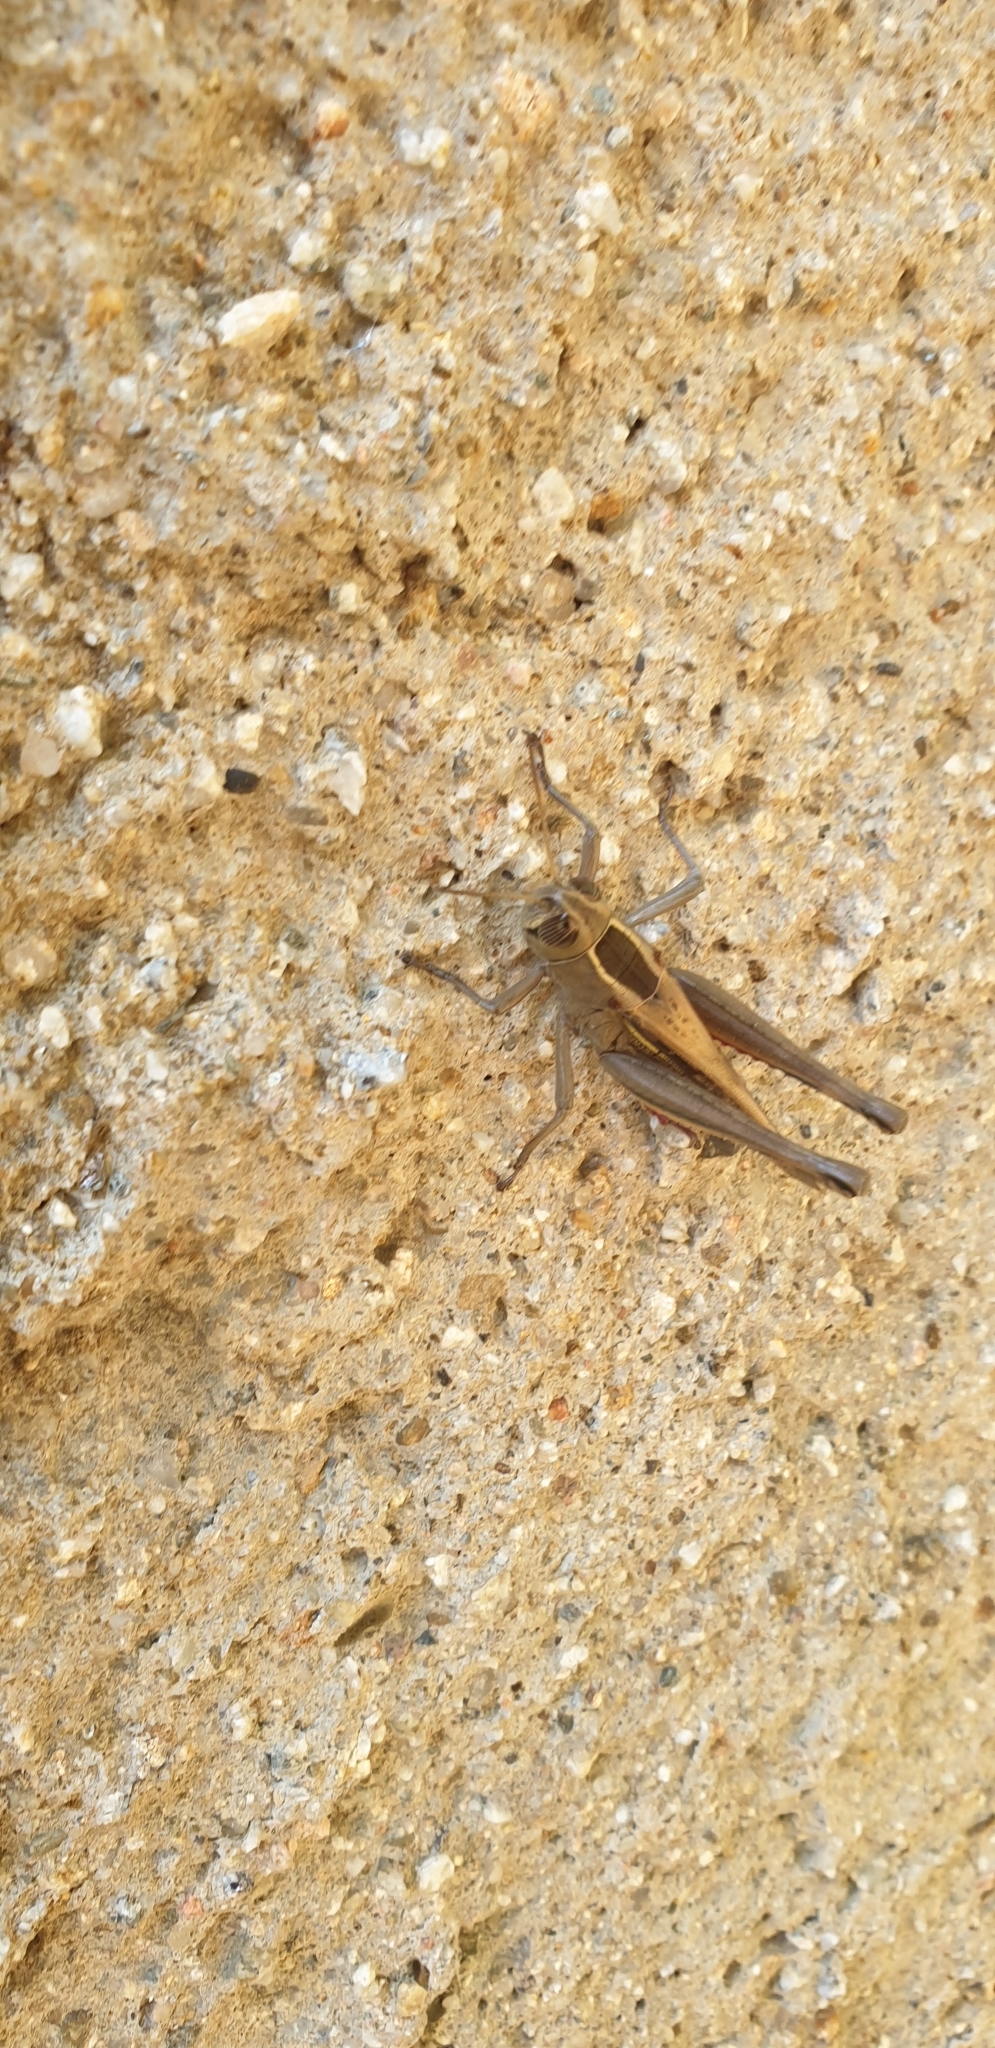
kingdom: Animalia
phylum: Arthropoda
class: Insecta
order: Orthoptera
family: Acrididae
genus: Eyprepocnemis
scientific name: Eyprepocnemis plorans
